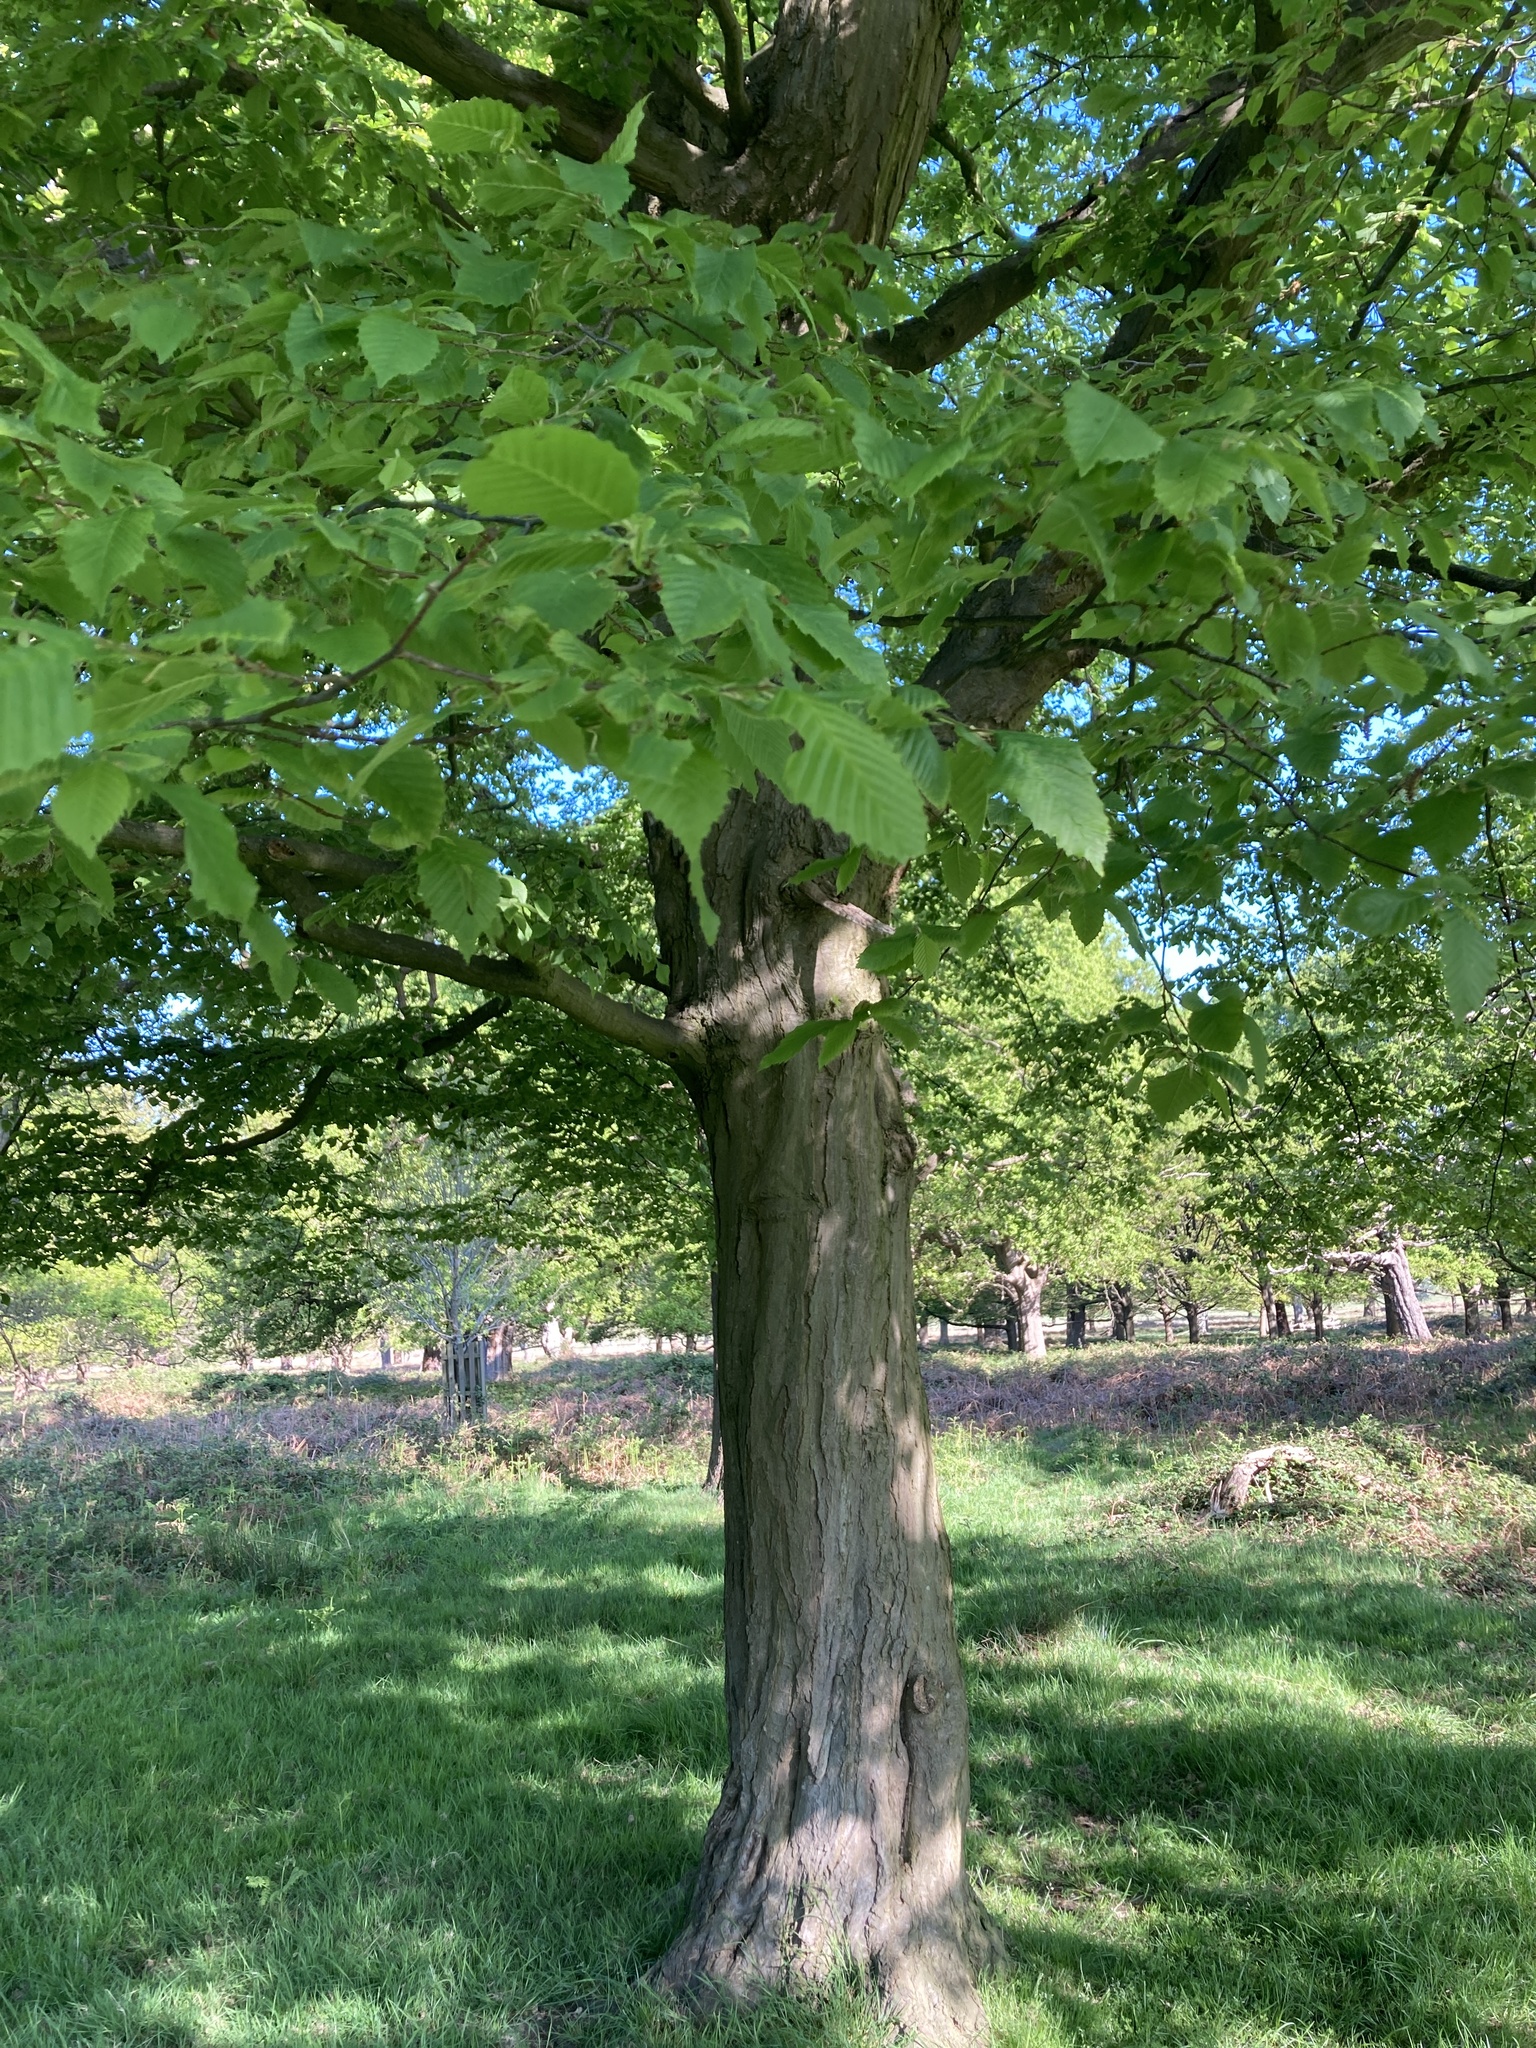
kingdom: Plantae
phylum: Tracheophyta
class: Magnoliopsida
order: Fagales
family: Betulaceae
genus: Carpinus
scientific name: Carpinus betulus
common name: Hornbeam
